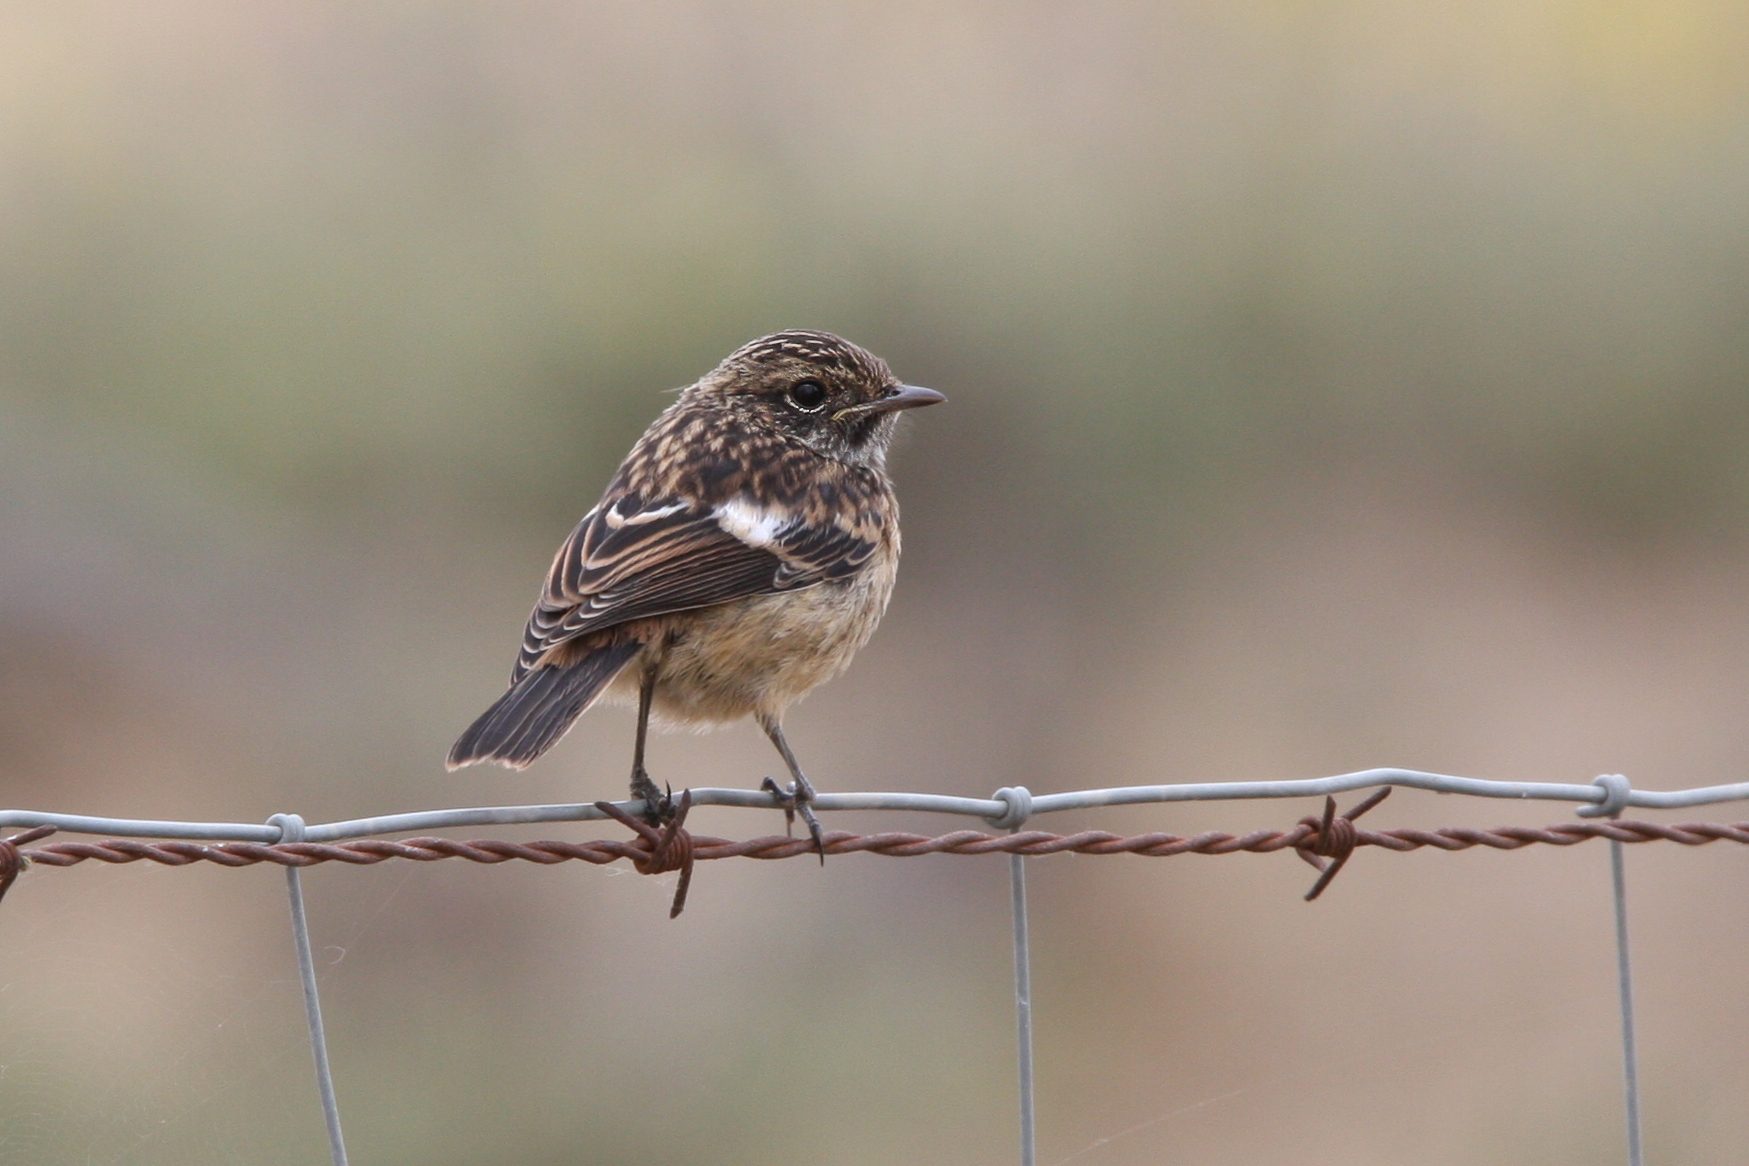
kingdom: Animalia
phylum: Chordata
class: Aves
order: Passeriformes
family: Muscicapidae
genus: Saxicola
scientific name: Saxicola rubicola
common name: European stonechat
